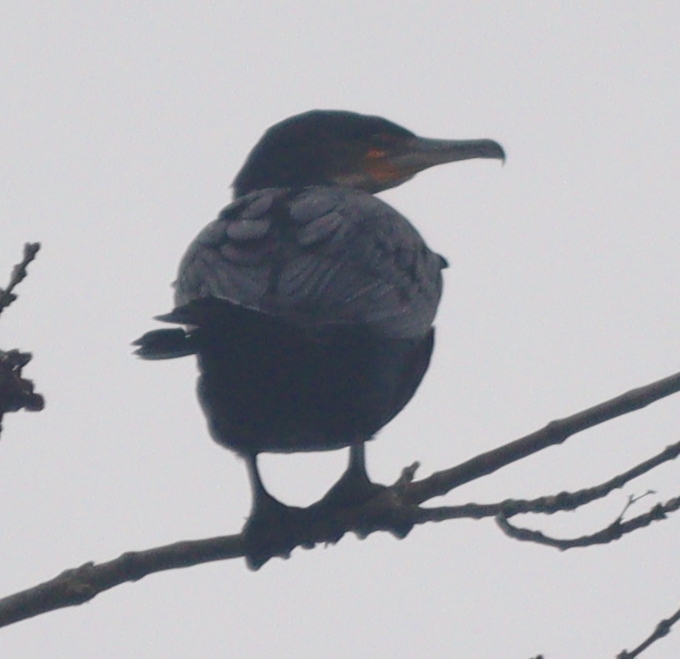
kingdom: Animalia
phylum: Chordata
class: Aves
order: Suliformes
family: Phalacrocoracidae
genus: Phalacrocorax
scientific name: Phalacrocorax carbo
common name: Great cormorant
